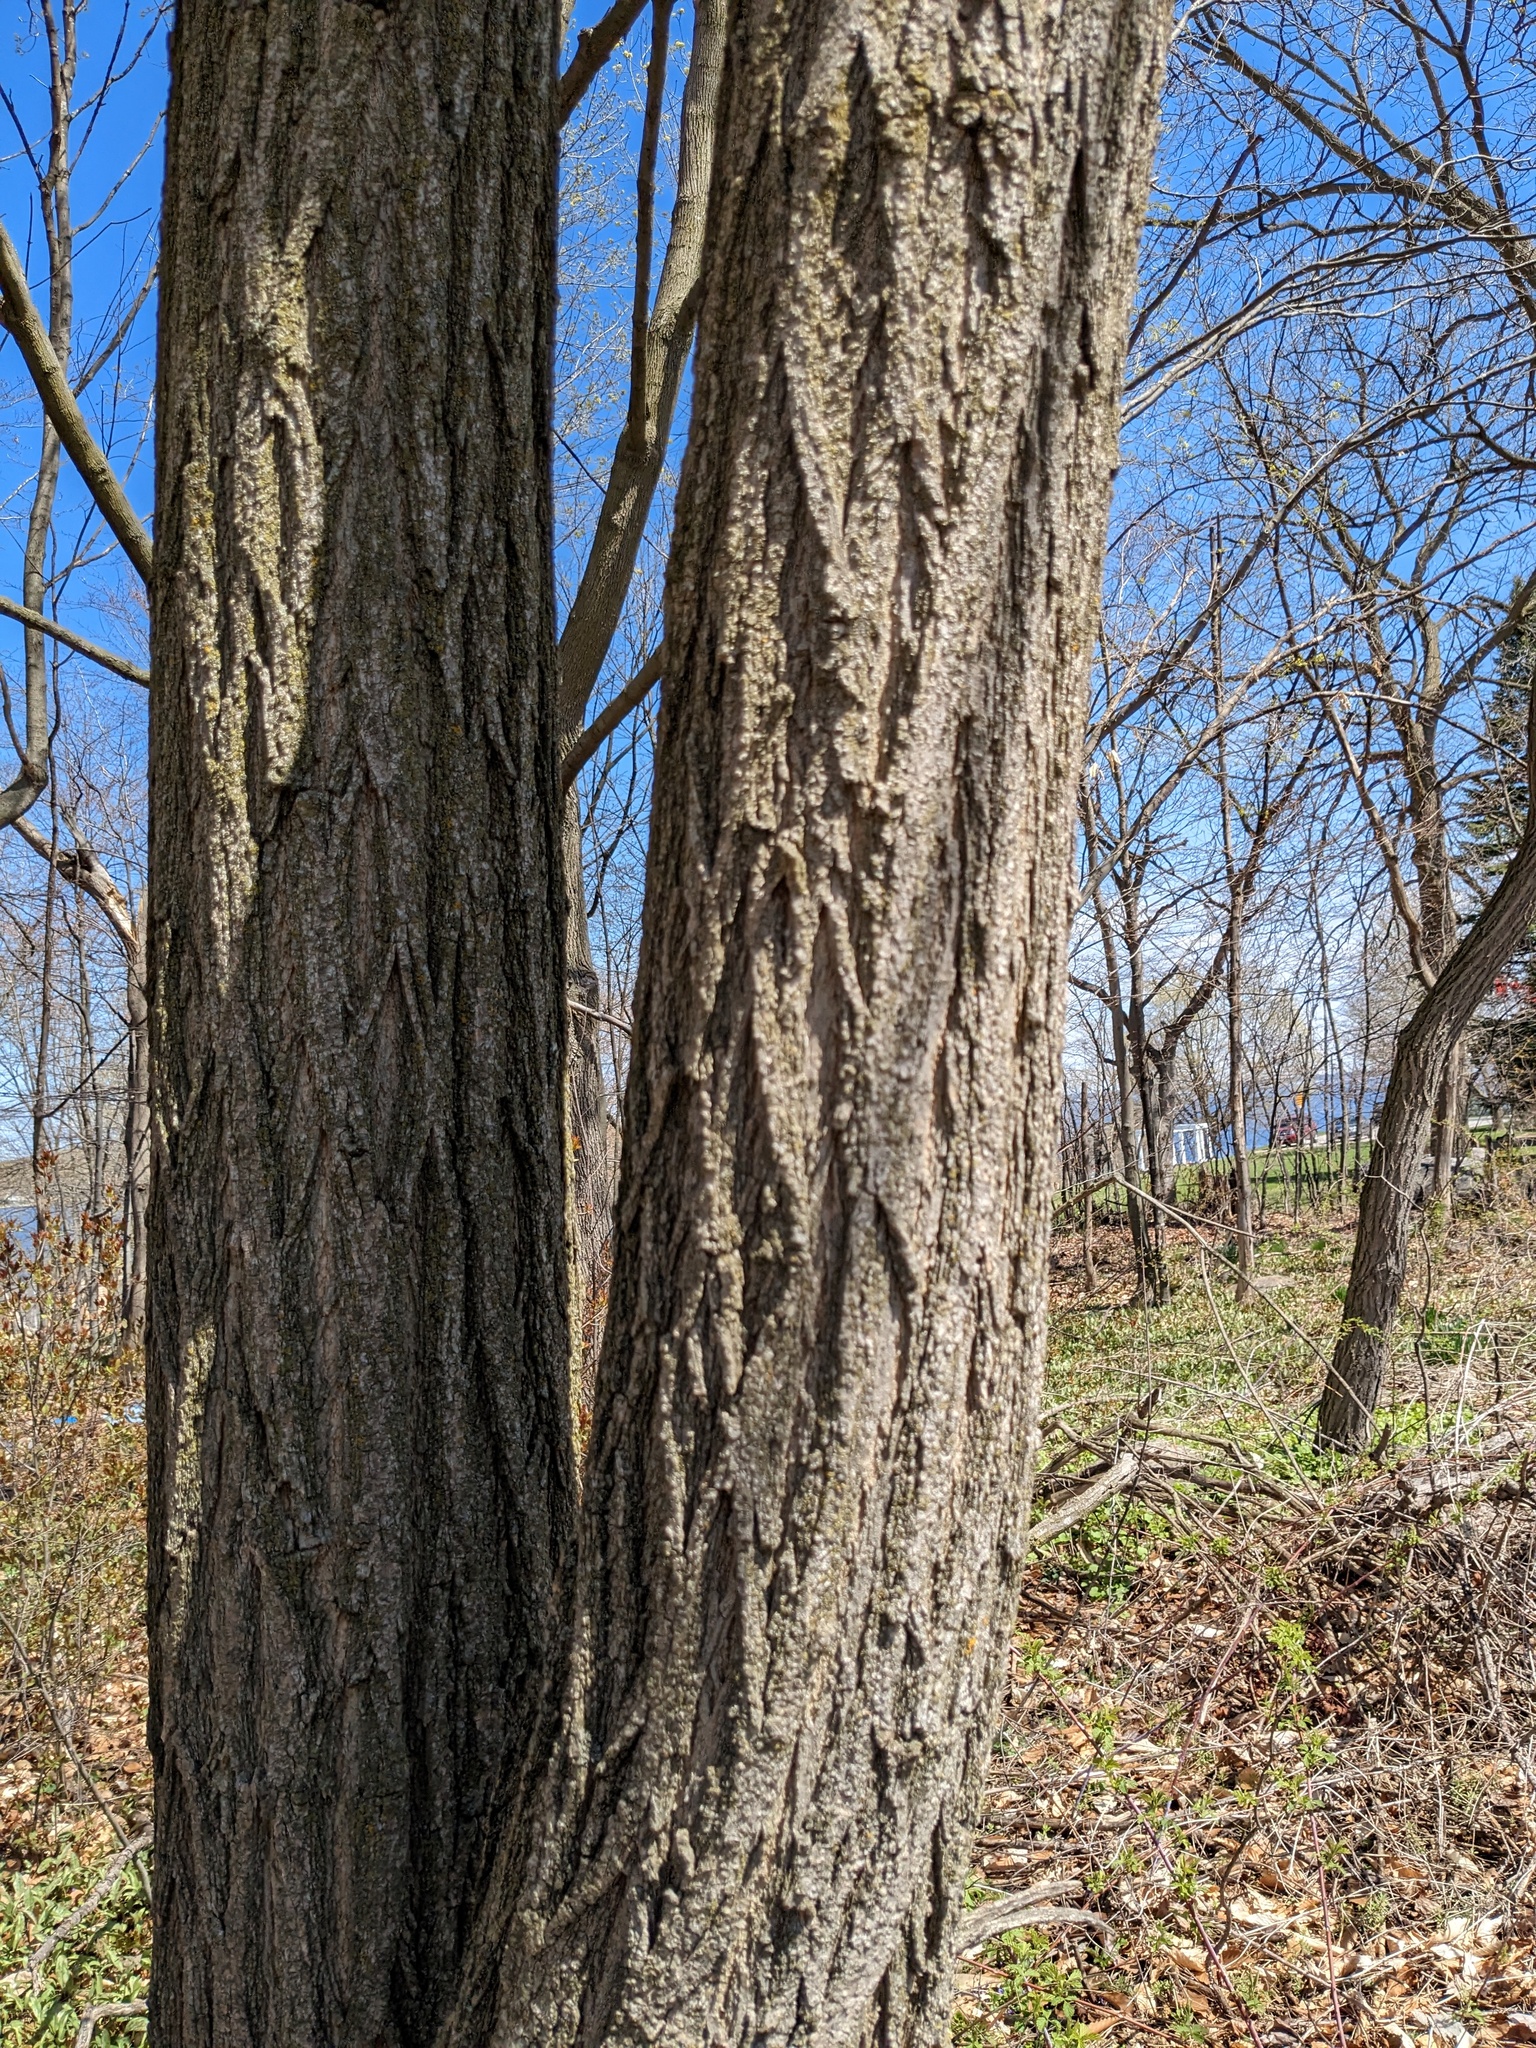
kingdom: Plantae
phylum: Tracheophyta
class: Magnoliopsida
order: Fabales
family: Fabaceae
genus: Robinia
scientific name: Robinia pseudoacacia
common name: Black locust
